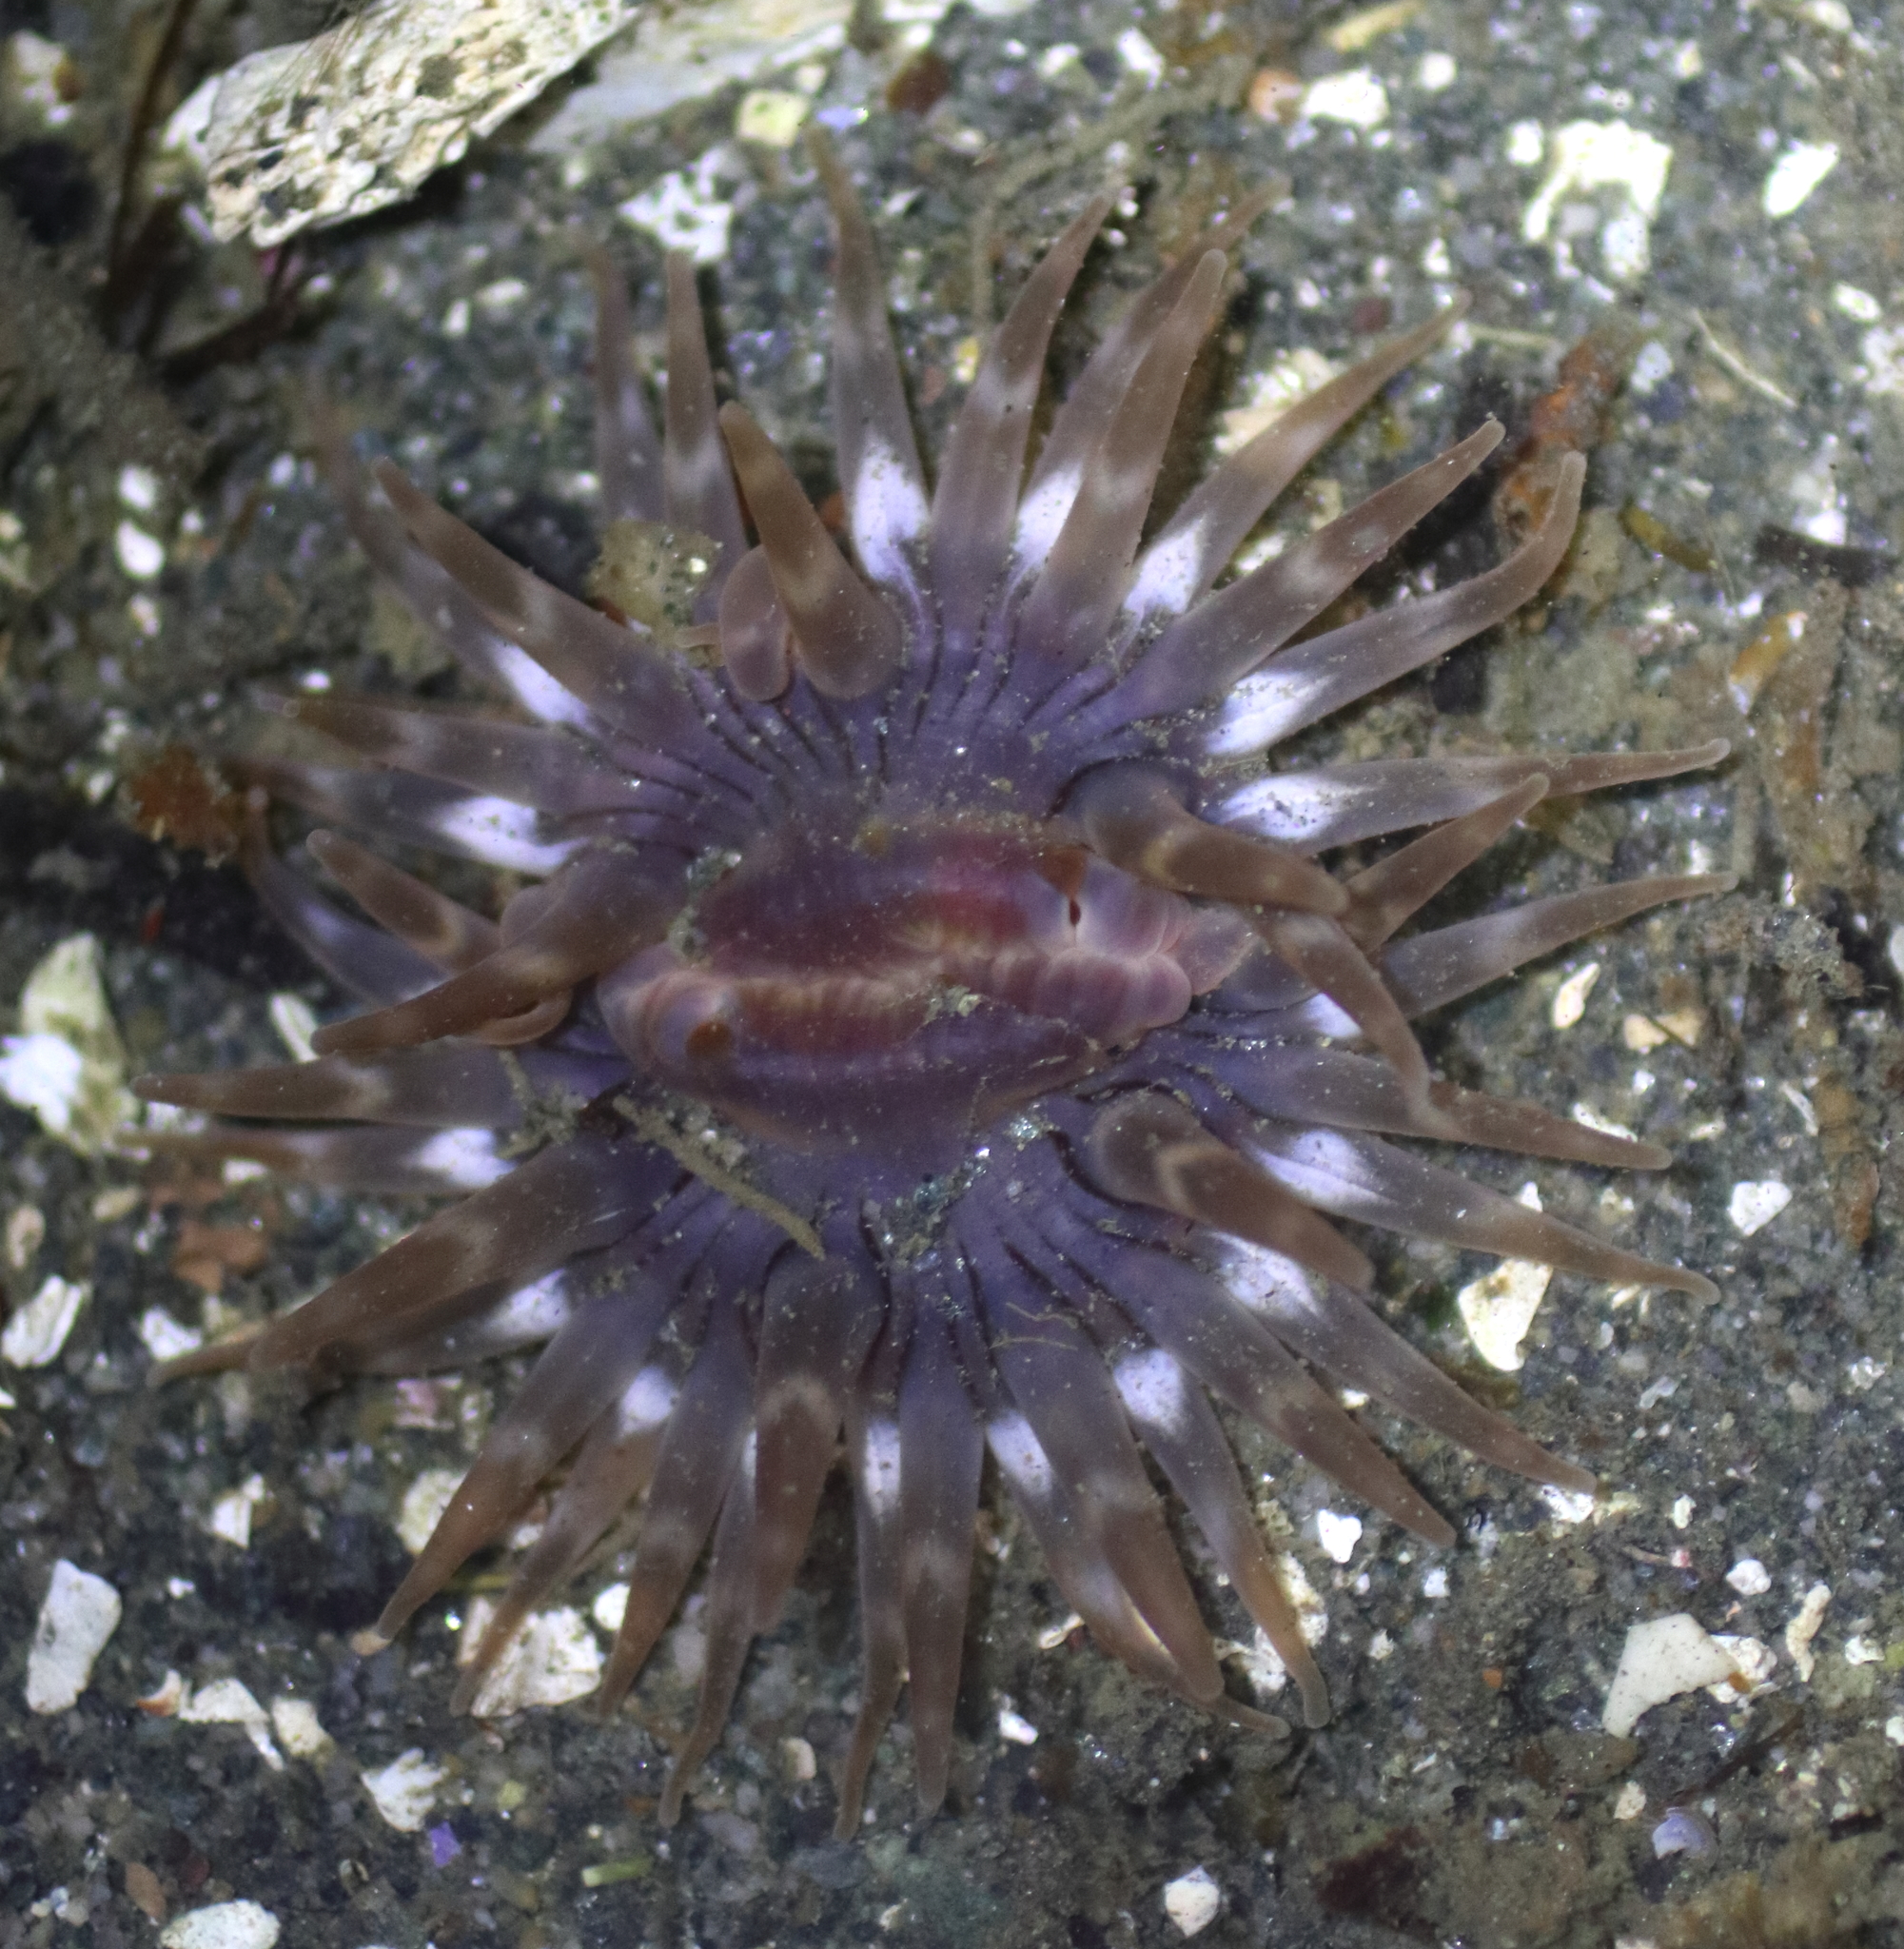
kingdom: Animalia
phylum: Cnidaria
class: Anthozoa
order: Actiniaria
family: Actiniidae
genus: Anthopleura
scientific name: Anthopleura artemisia
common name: Buried sea anemone
